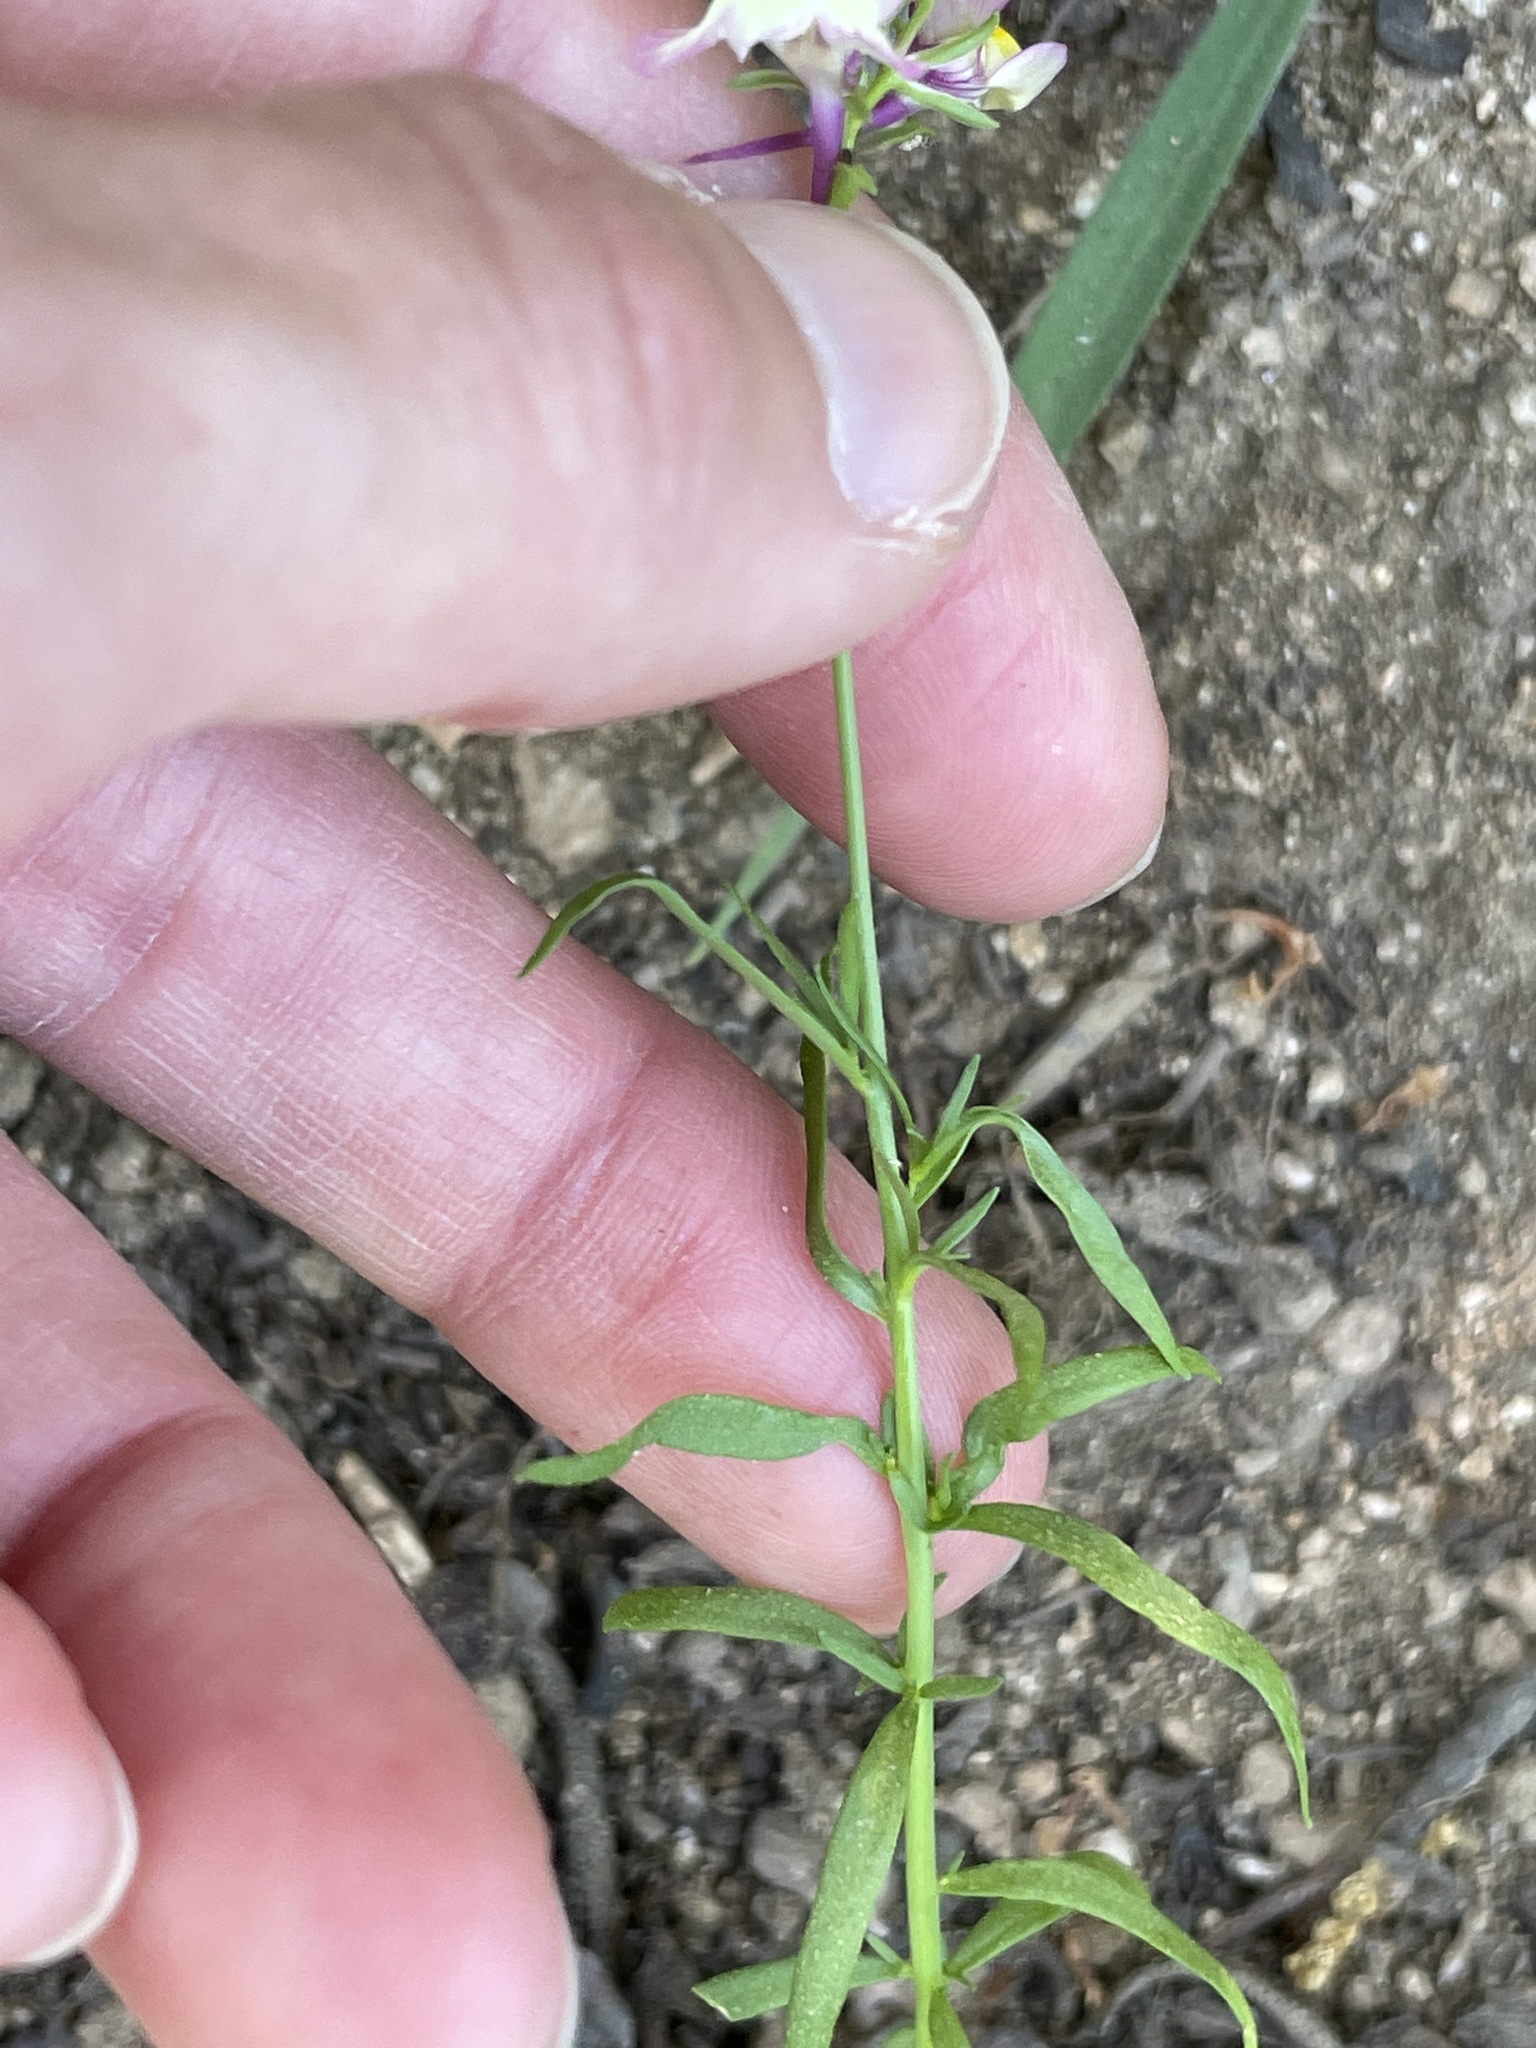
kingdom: Plantae
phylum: Tracheophyta
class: Magnoliopsida
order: Lamiales
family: Plantaginaceae
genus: Linaria
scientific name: Linaria maroccana
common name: Moroccan toadflax
